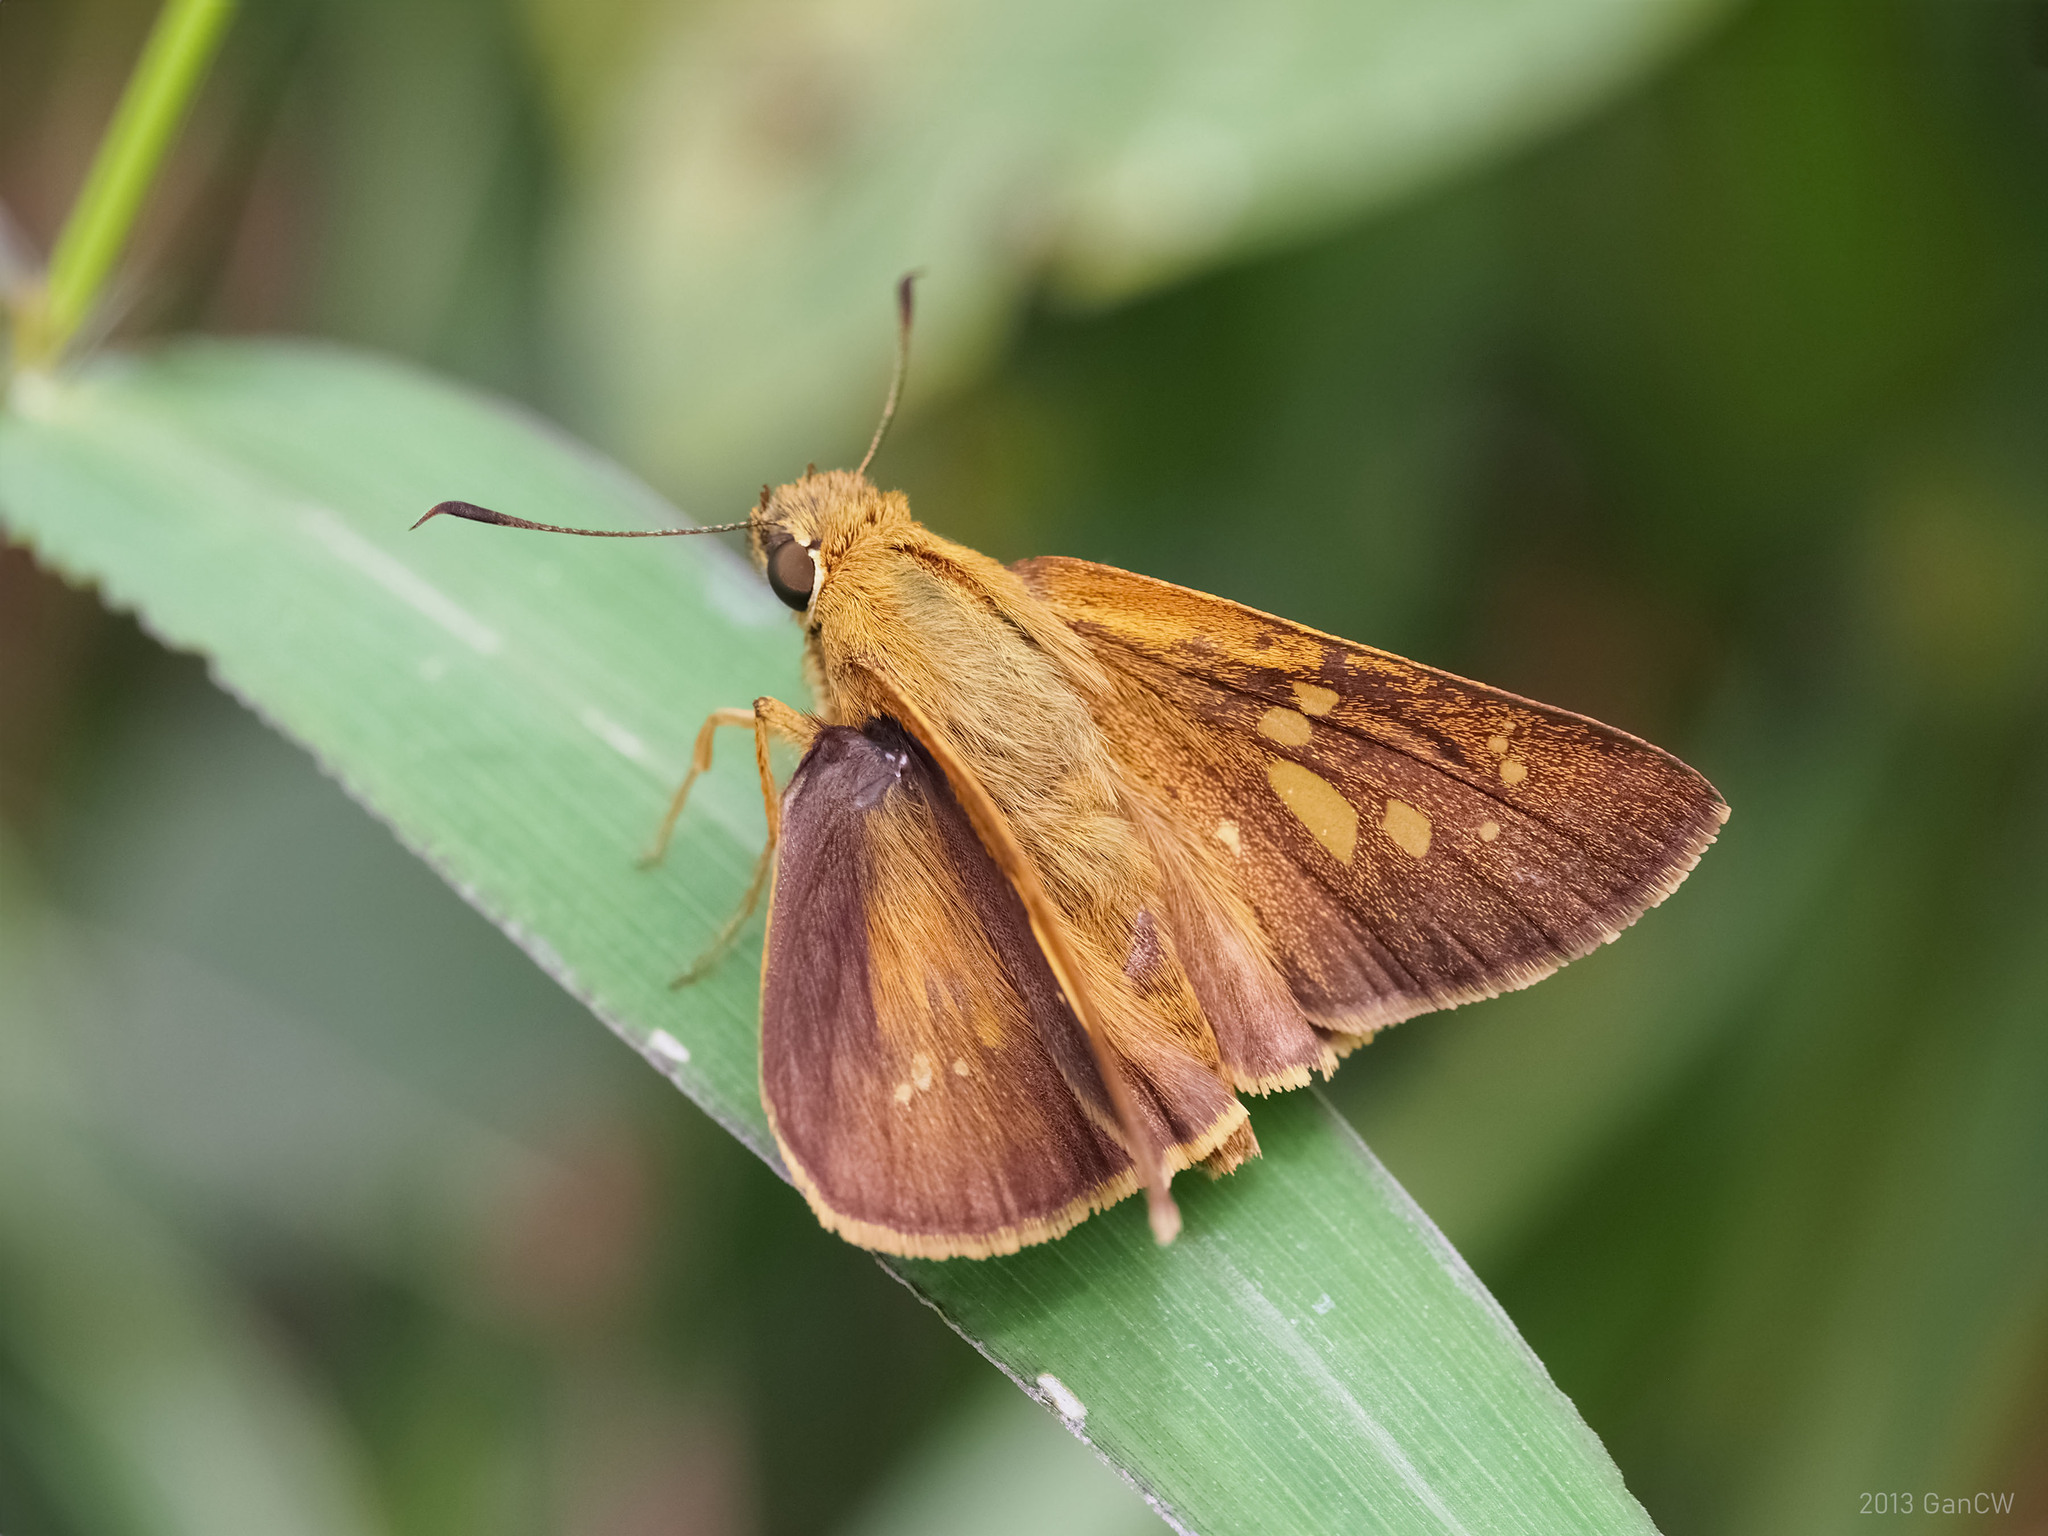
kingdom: Animalia
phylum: Arthropoda
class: Insecta
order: Lepidoptera
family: Hesperiidae
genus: Polytremis
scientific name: Polytremis lubricans
